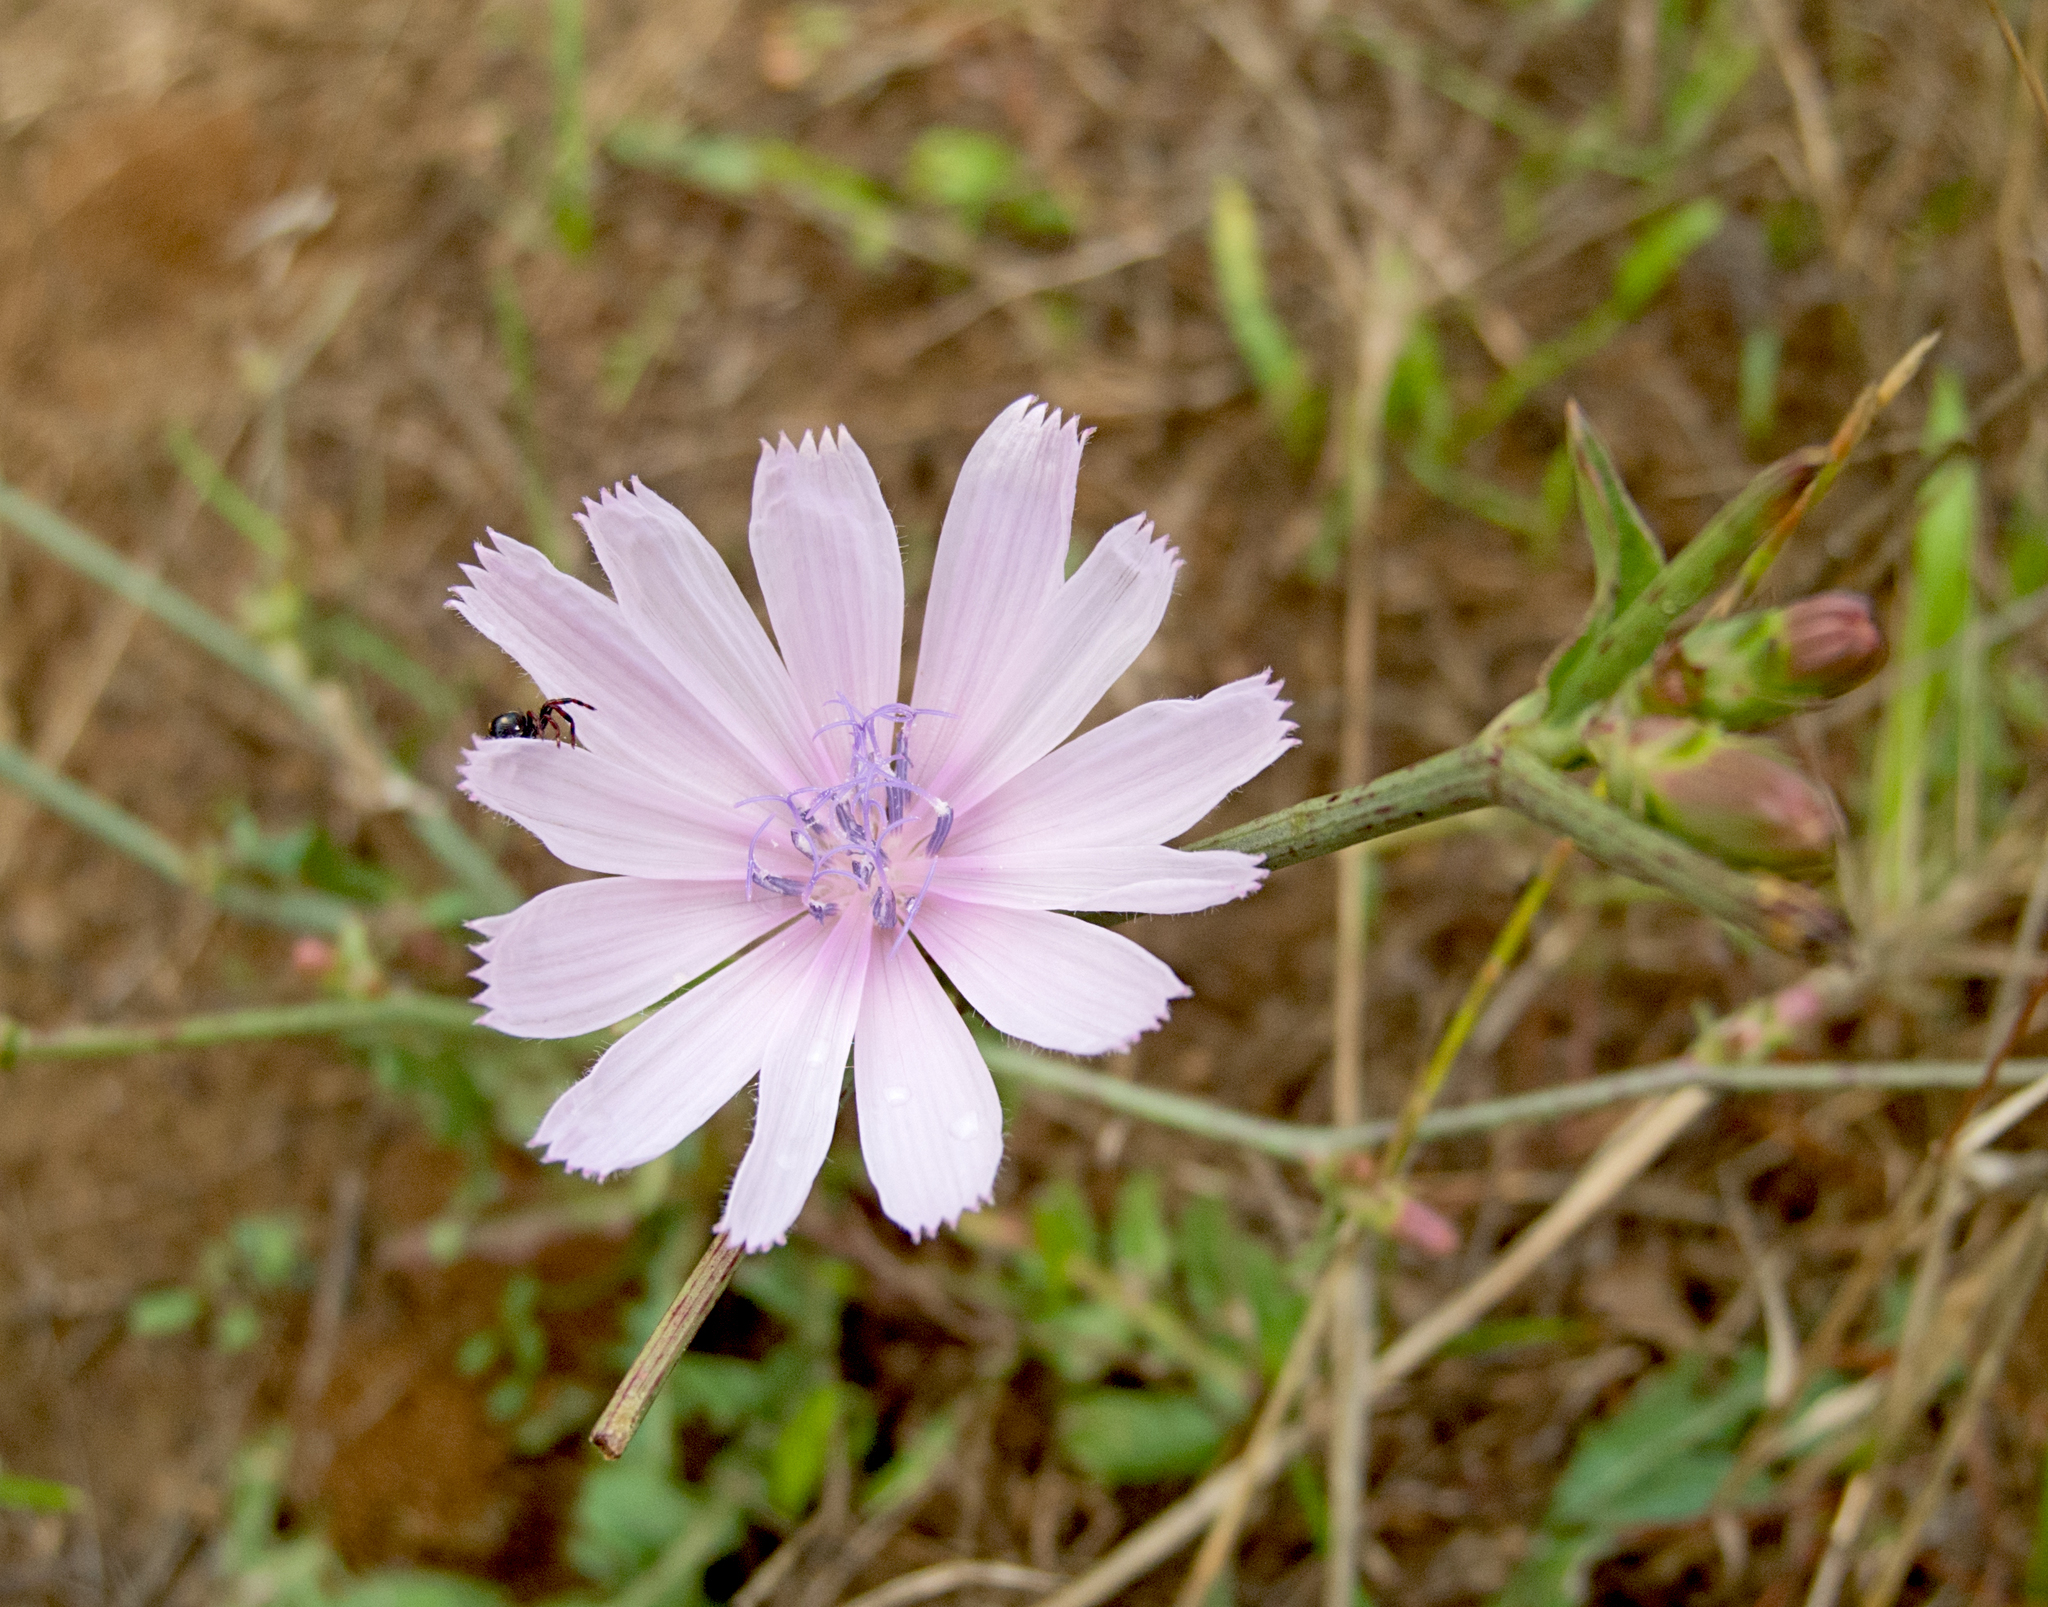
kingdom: Plantae
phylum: Tracheophyta
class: Magnoliopsida
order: Asterales
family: Asteraceae
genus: Cichorium
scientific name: Cichorium intybus
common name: Chicory
